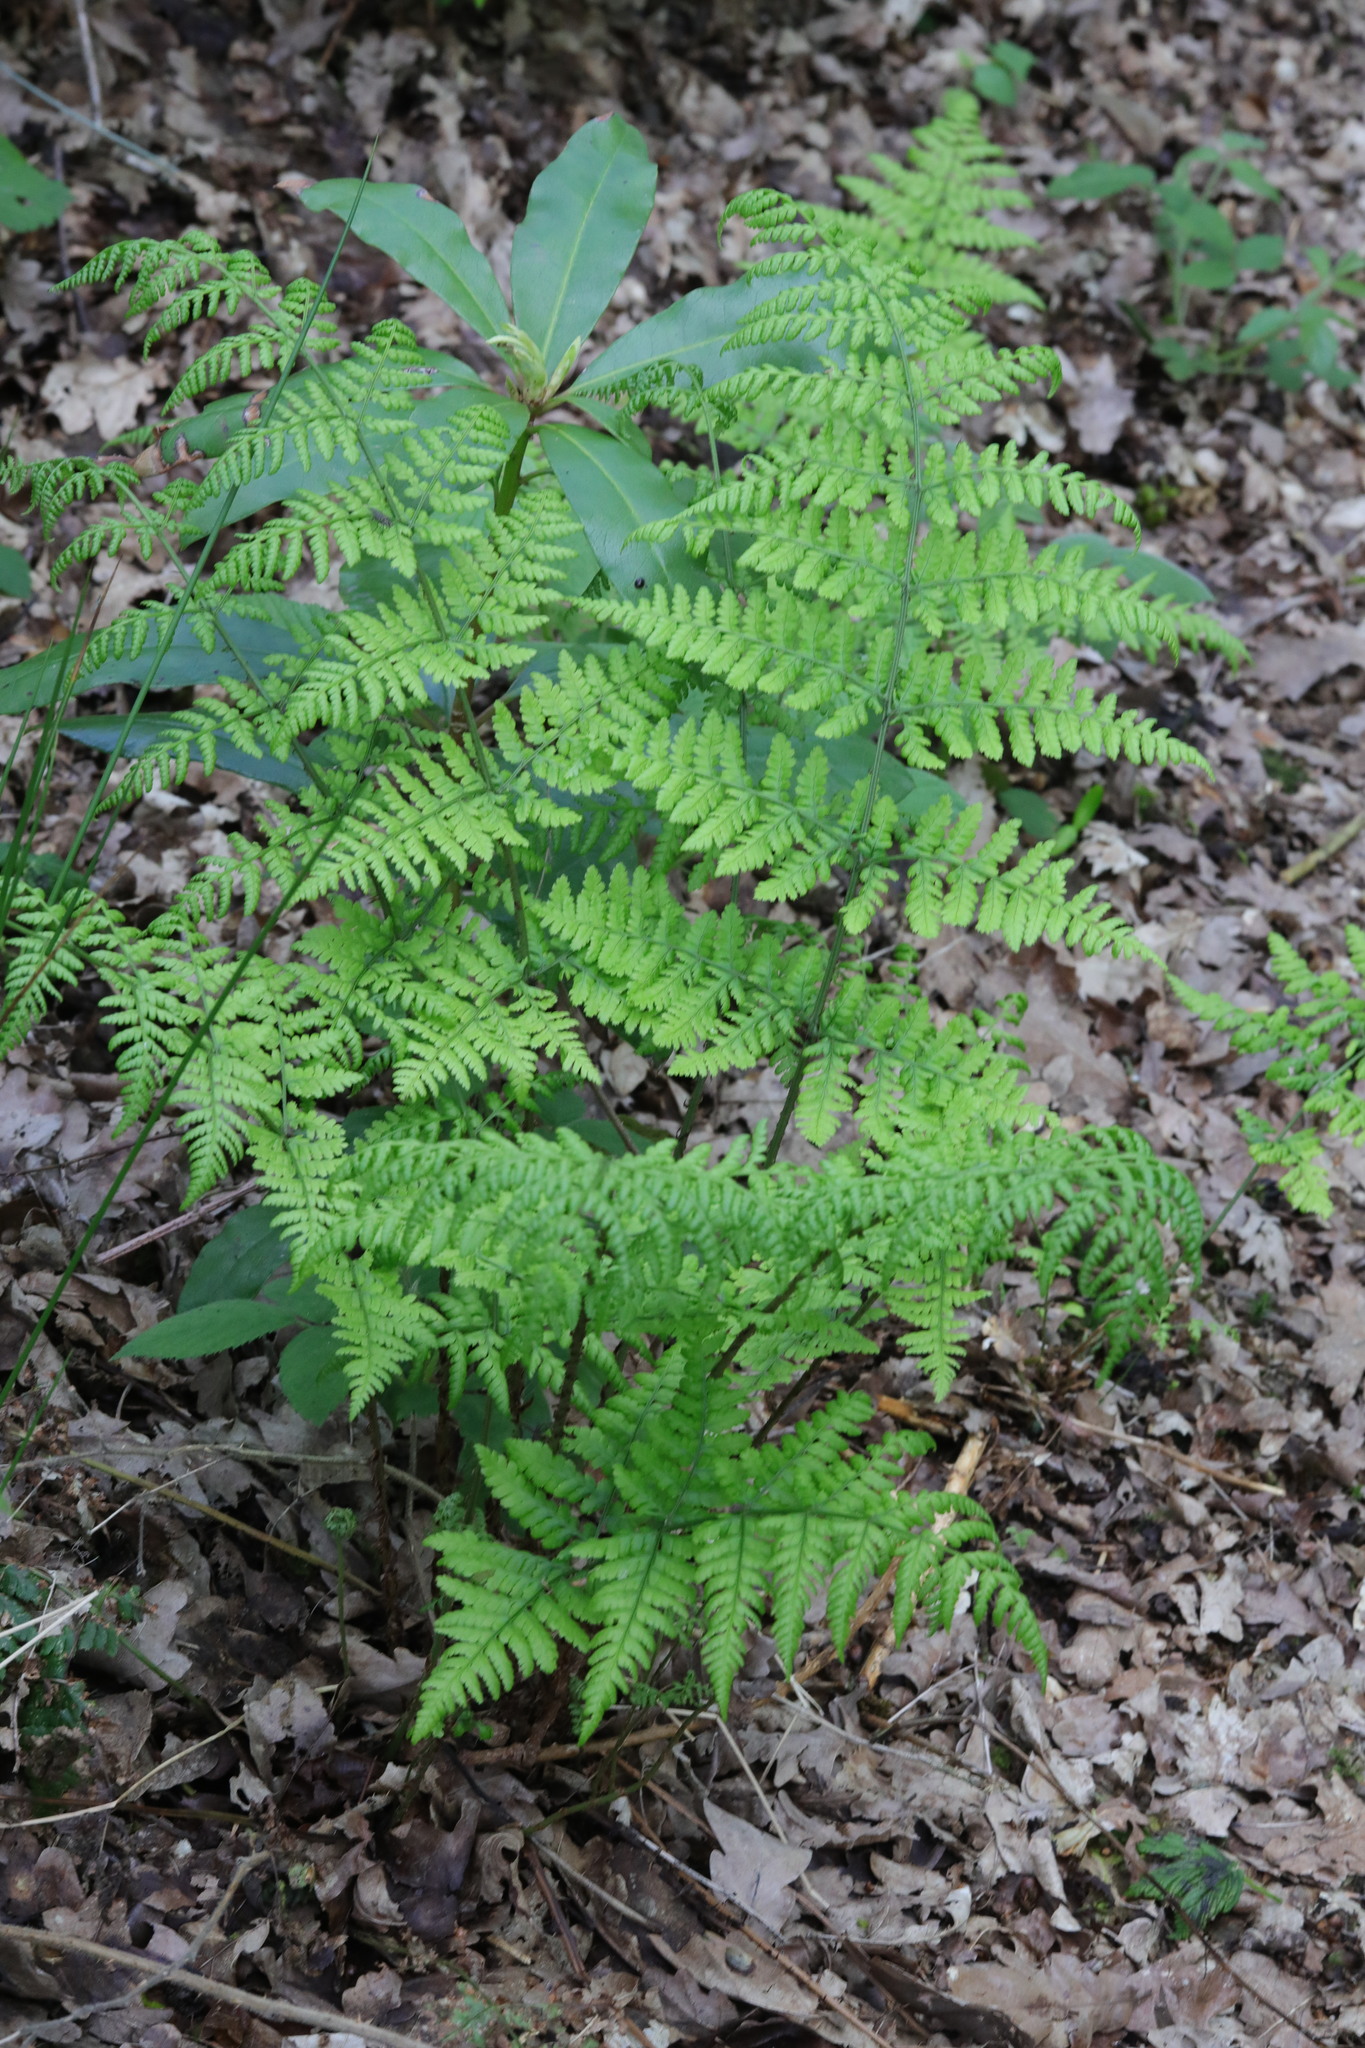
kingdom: Plantae
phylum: Tracheophyta
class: Polypodiopsida
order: Polypodiales
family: Dryopteridaceae
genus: Dryopteris
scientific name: Dryopteris dilatata
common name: Broad buckler-fern
